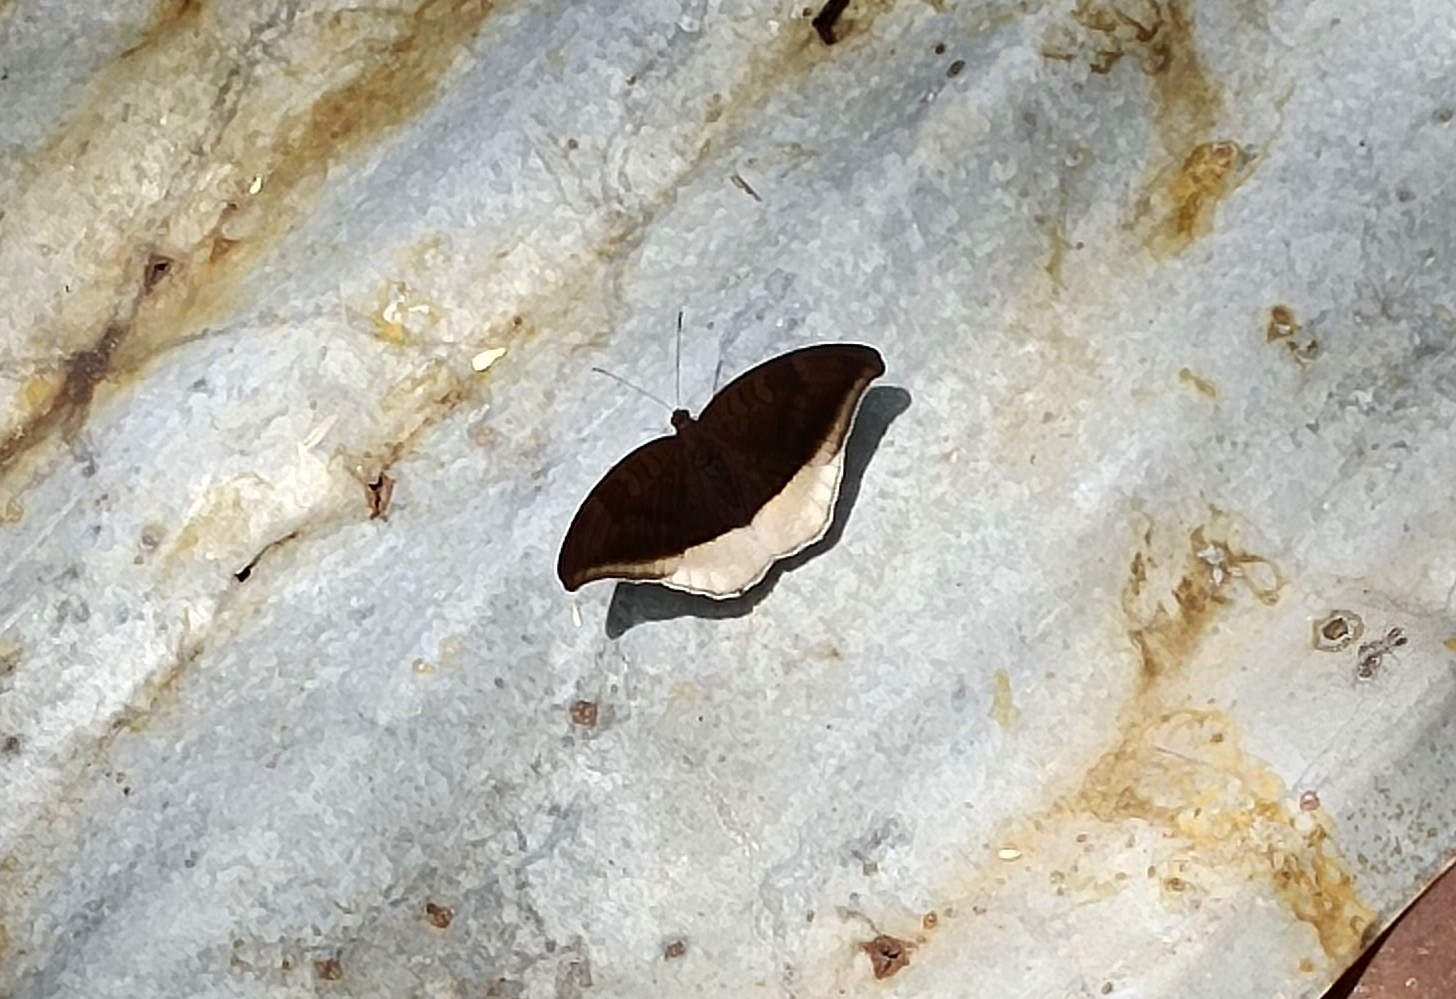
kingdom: Animalia
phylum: Arthropoda
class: Insecta
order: Lepidoptera
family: Nymphalidae
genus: Tanaecia
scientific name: Tanaecia lepidea
